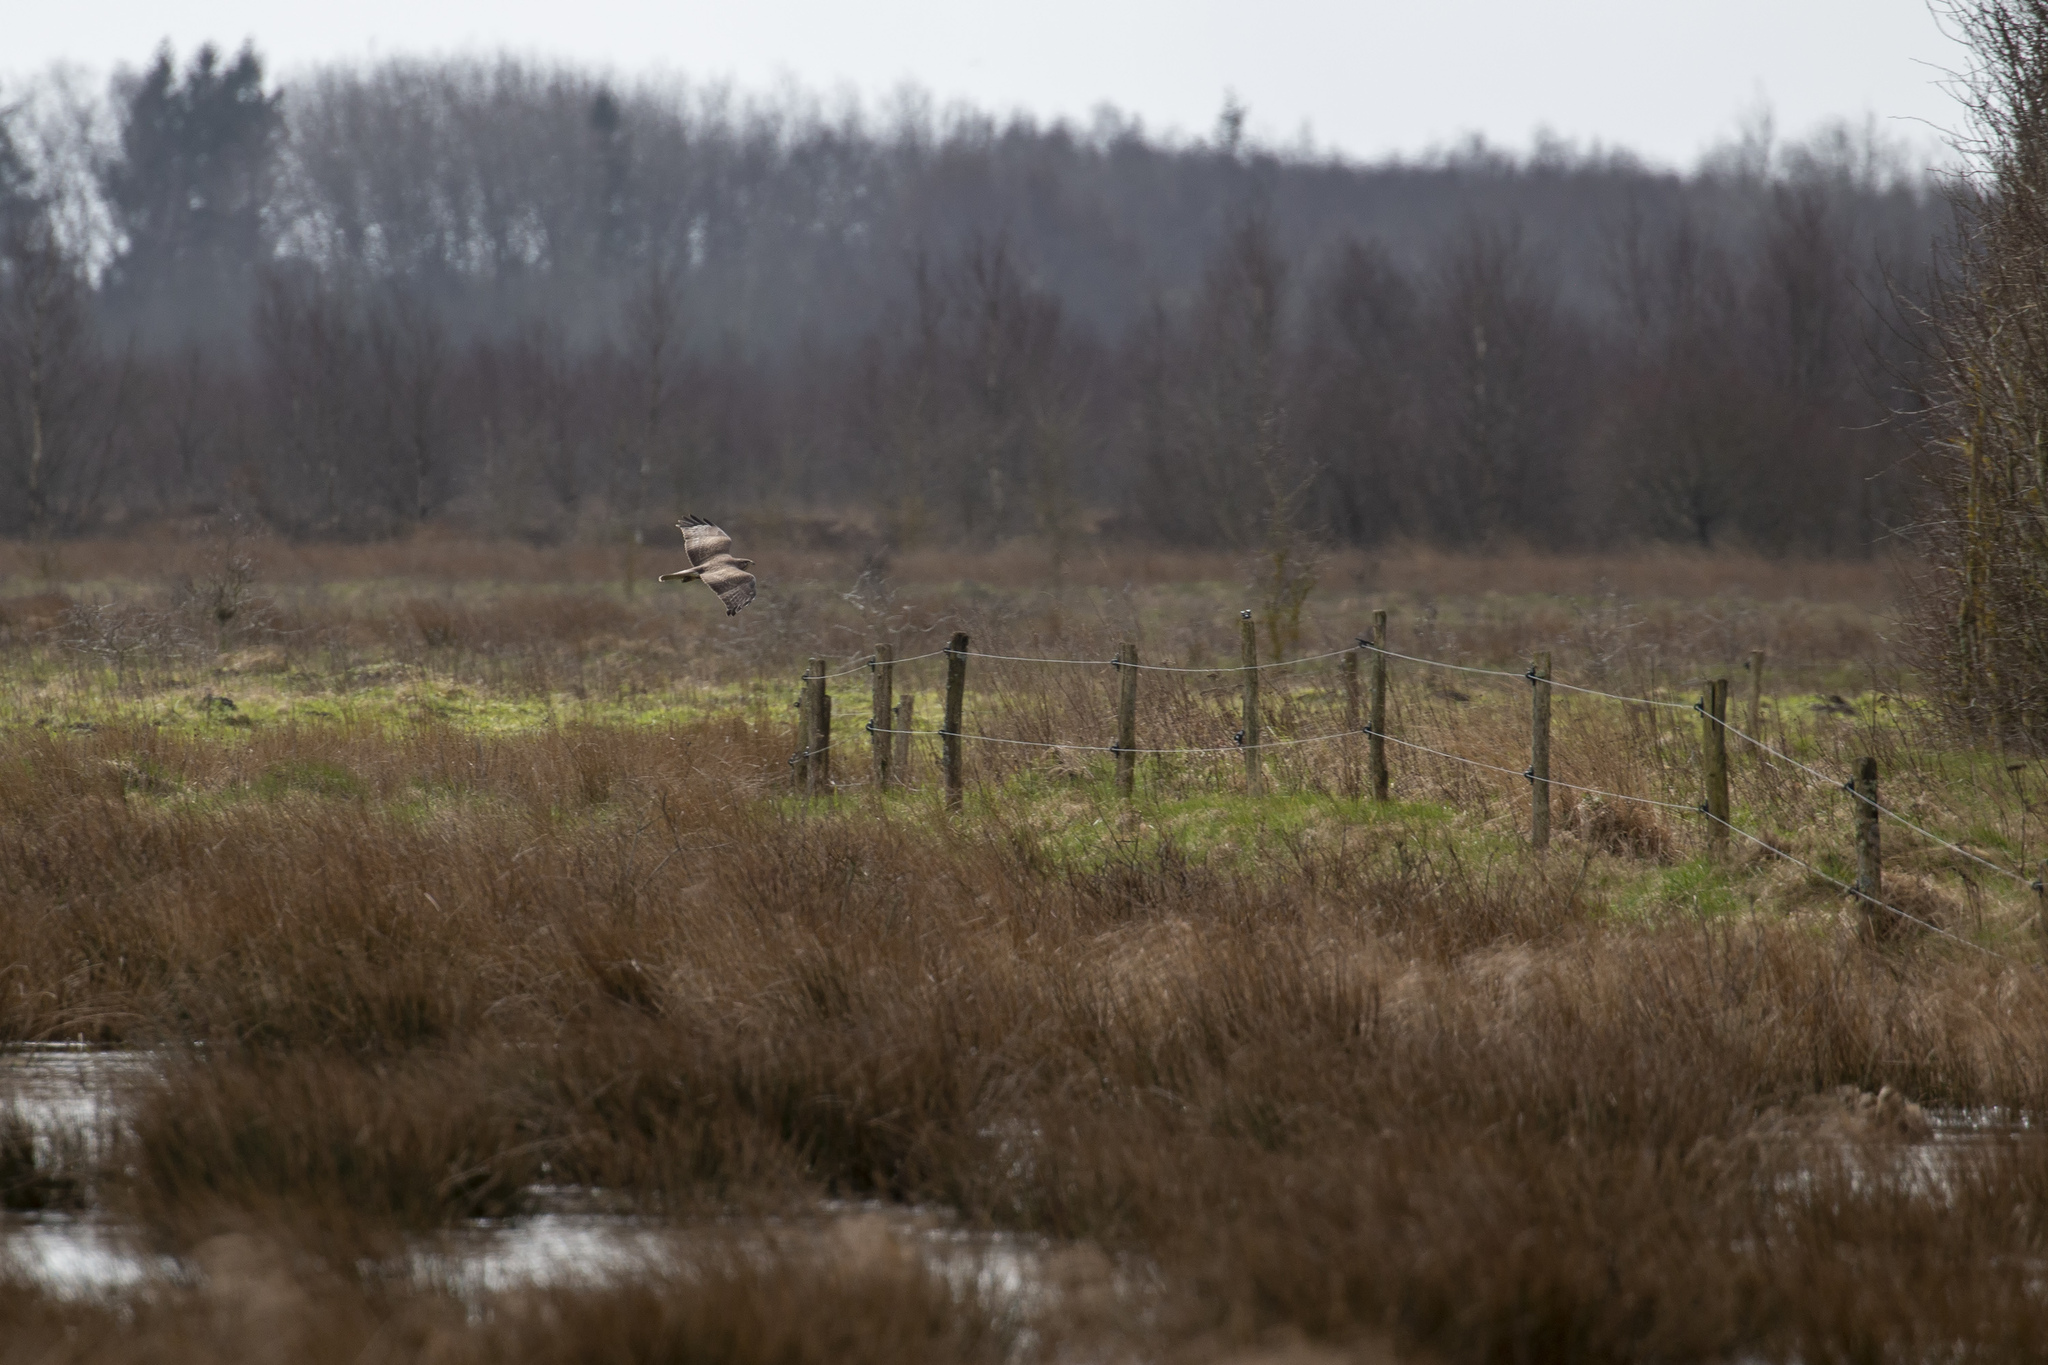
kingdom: Animalia
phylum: Chordata
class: Aves
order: Accipitriformes
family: Accipitridae
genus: Buteo
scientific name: Buteo buteo
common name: Common buzzard
